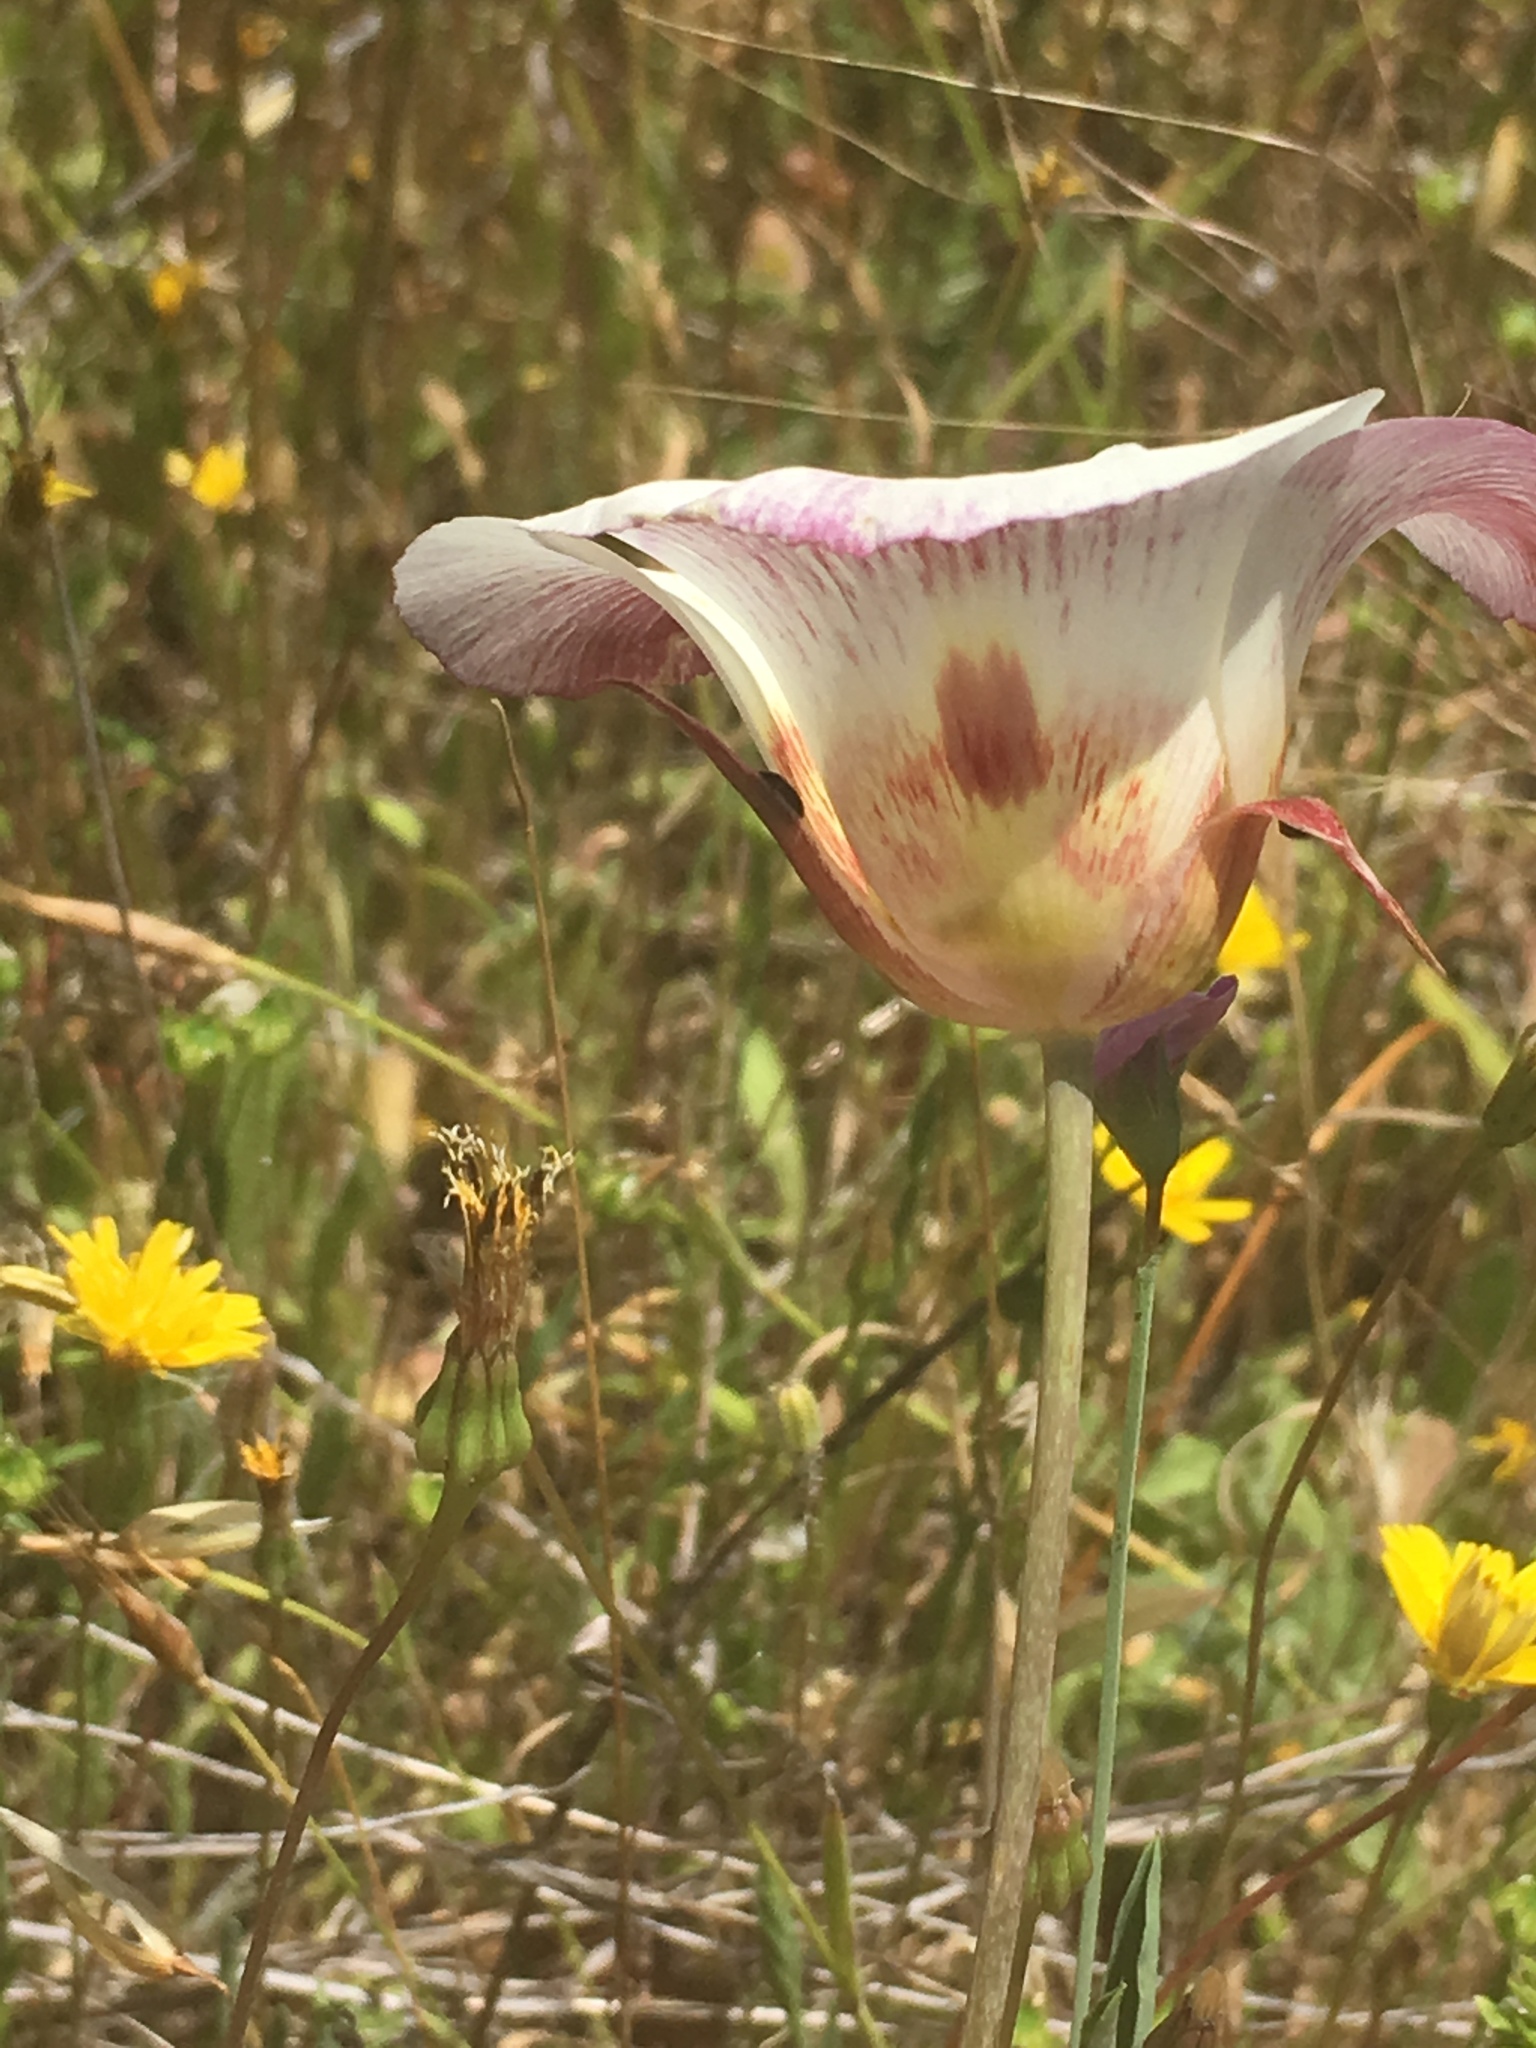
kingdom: Plantae
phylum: Tracheophyta
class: Liliopsida
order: Liliales
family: Liliaceae
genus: Calochortus
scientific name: Calochortus vestae
